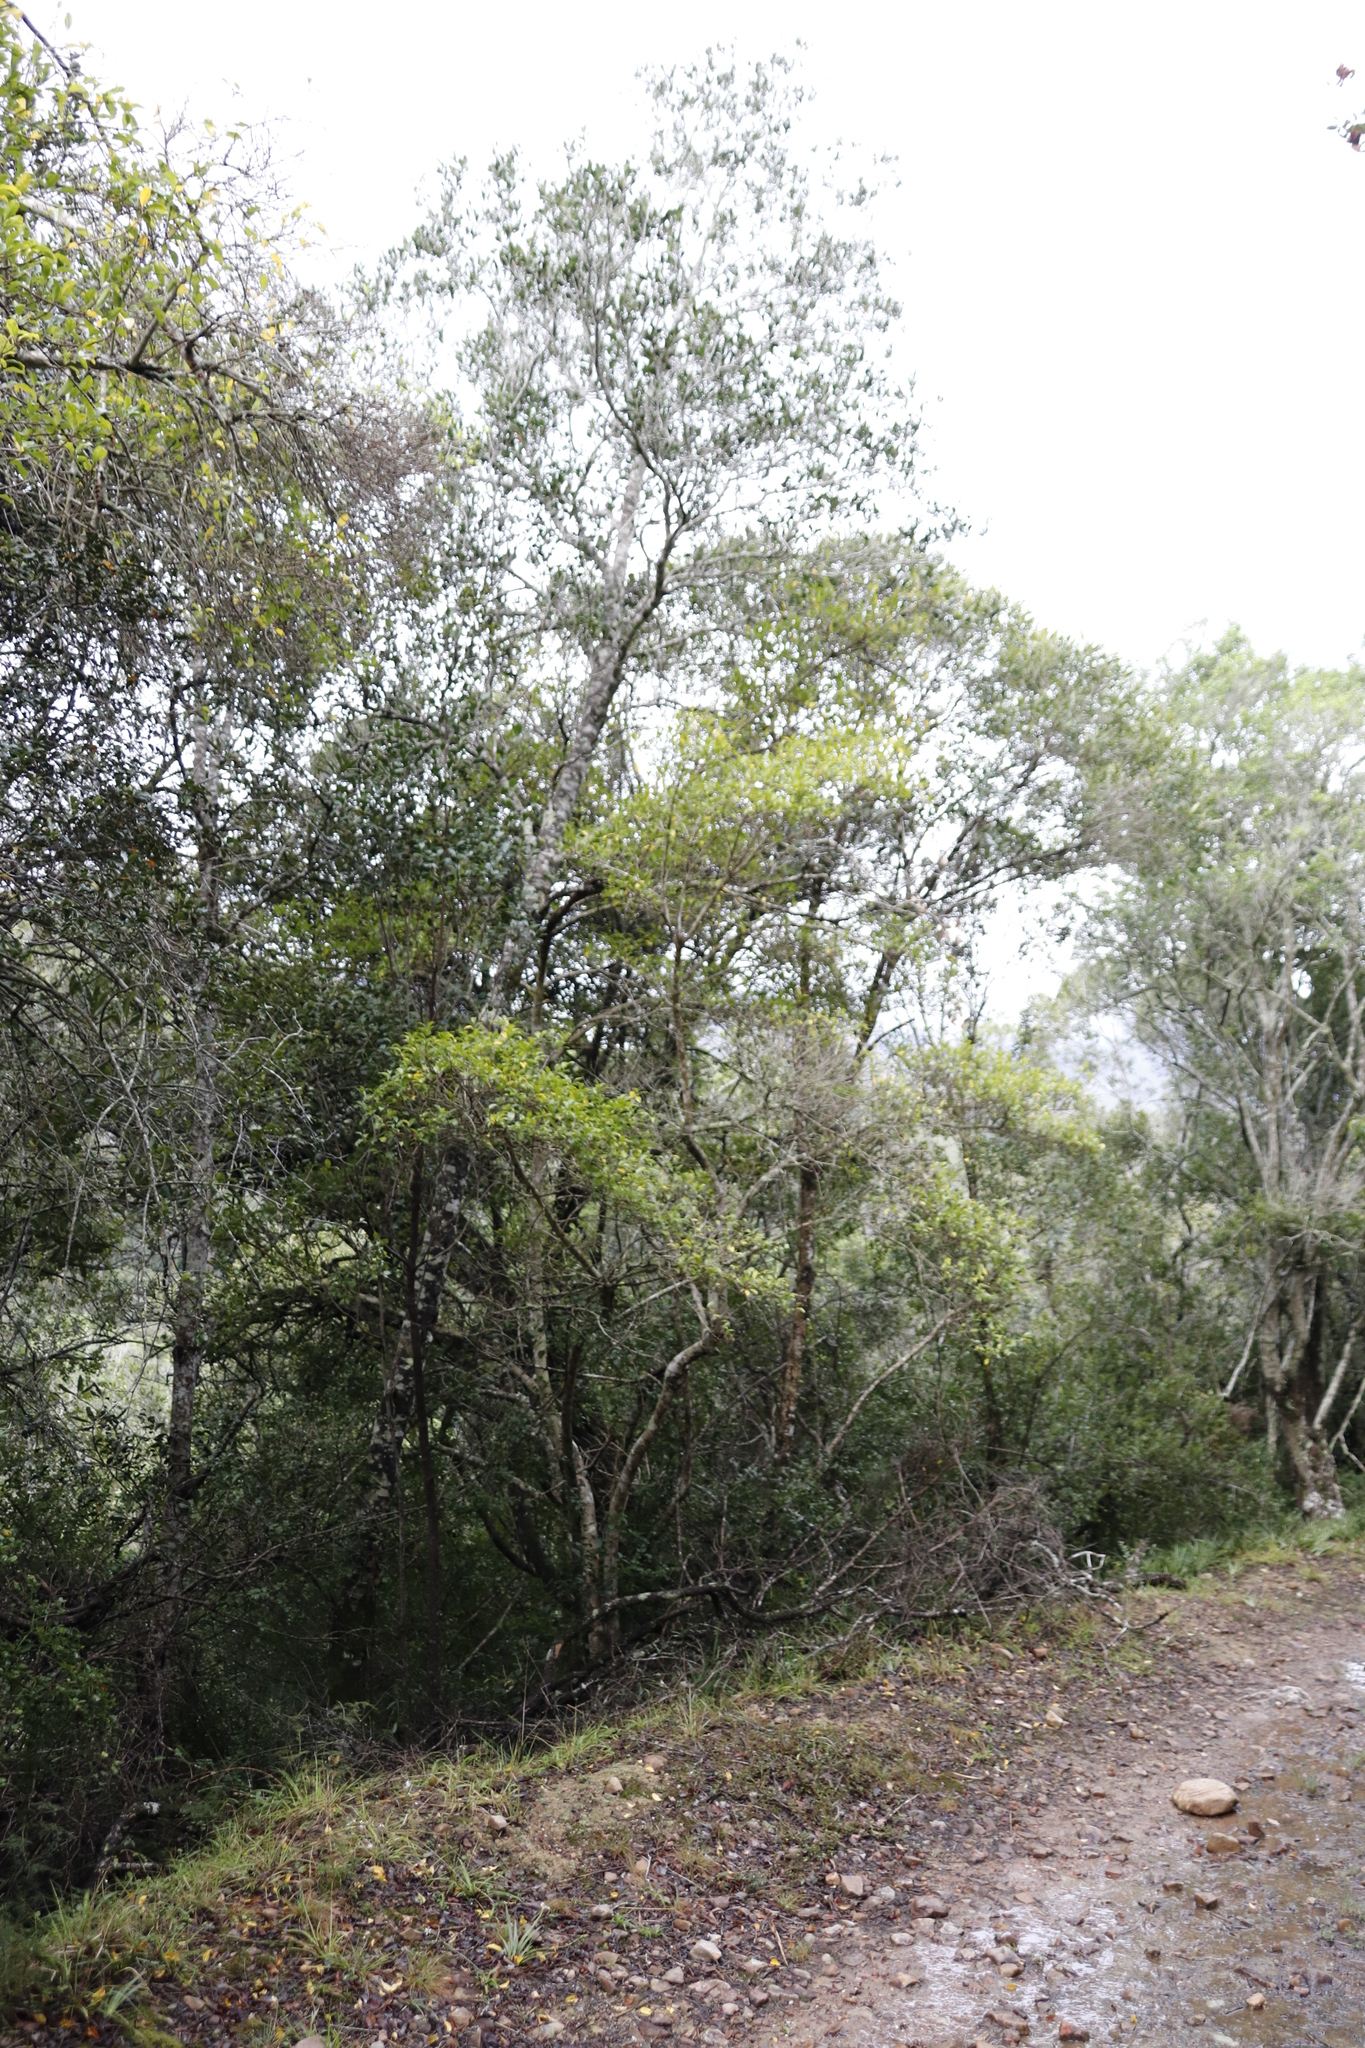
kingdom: Plantae
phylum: Tracheophyta
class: Magnoliopsida
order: Gentianales
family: Rubiaceae
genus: Canthium
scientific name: Canthium inerme
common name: Unarmed turkey-berry
